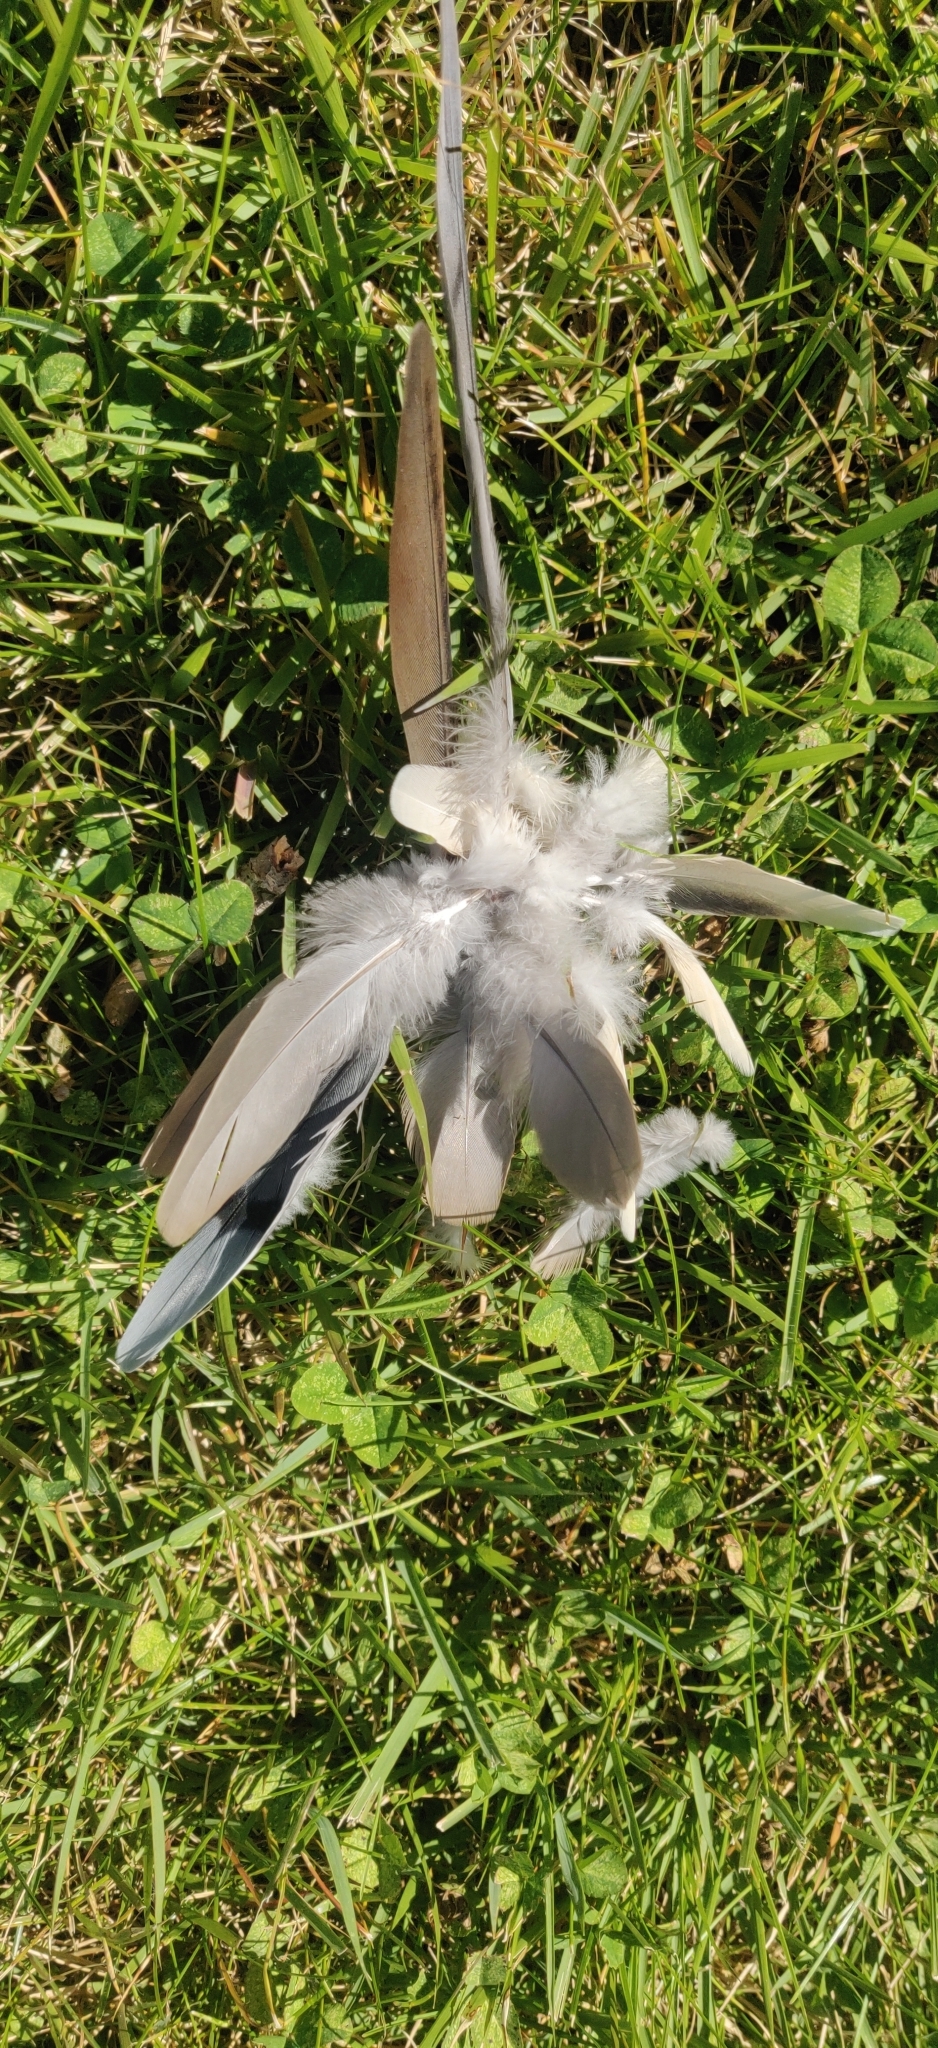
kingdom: Animalia
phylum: Chordata
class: Aves
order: Columbiformes
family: Columbidae
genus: Zenaida
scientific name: Zenaida macroura
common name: Mourning dove
